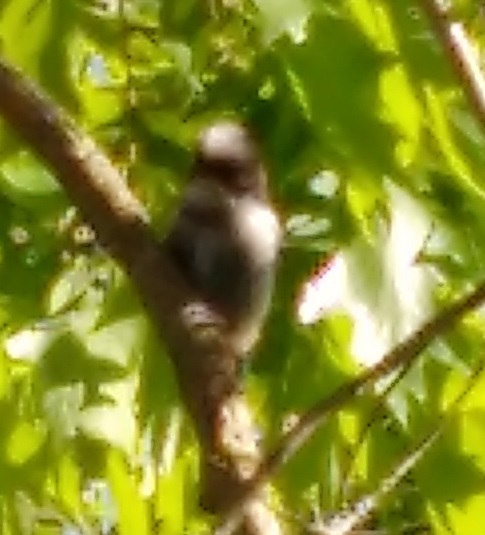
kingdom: Animalia
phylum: Chordata
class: Aves
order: Passeriformes
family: Aegithalidae
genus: Aegithalos
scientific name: Aegithalos caudatus
